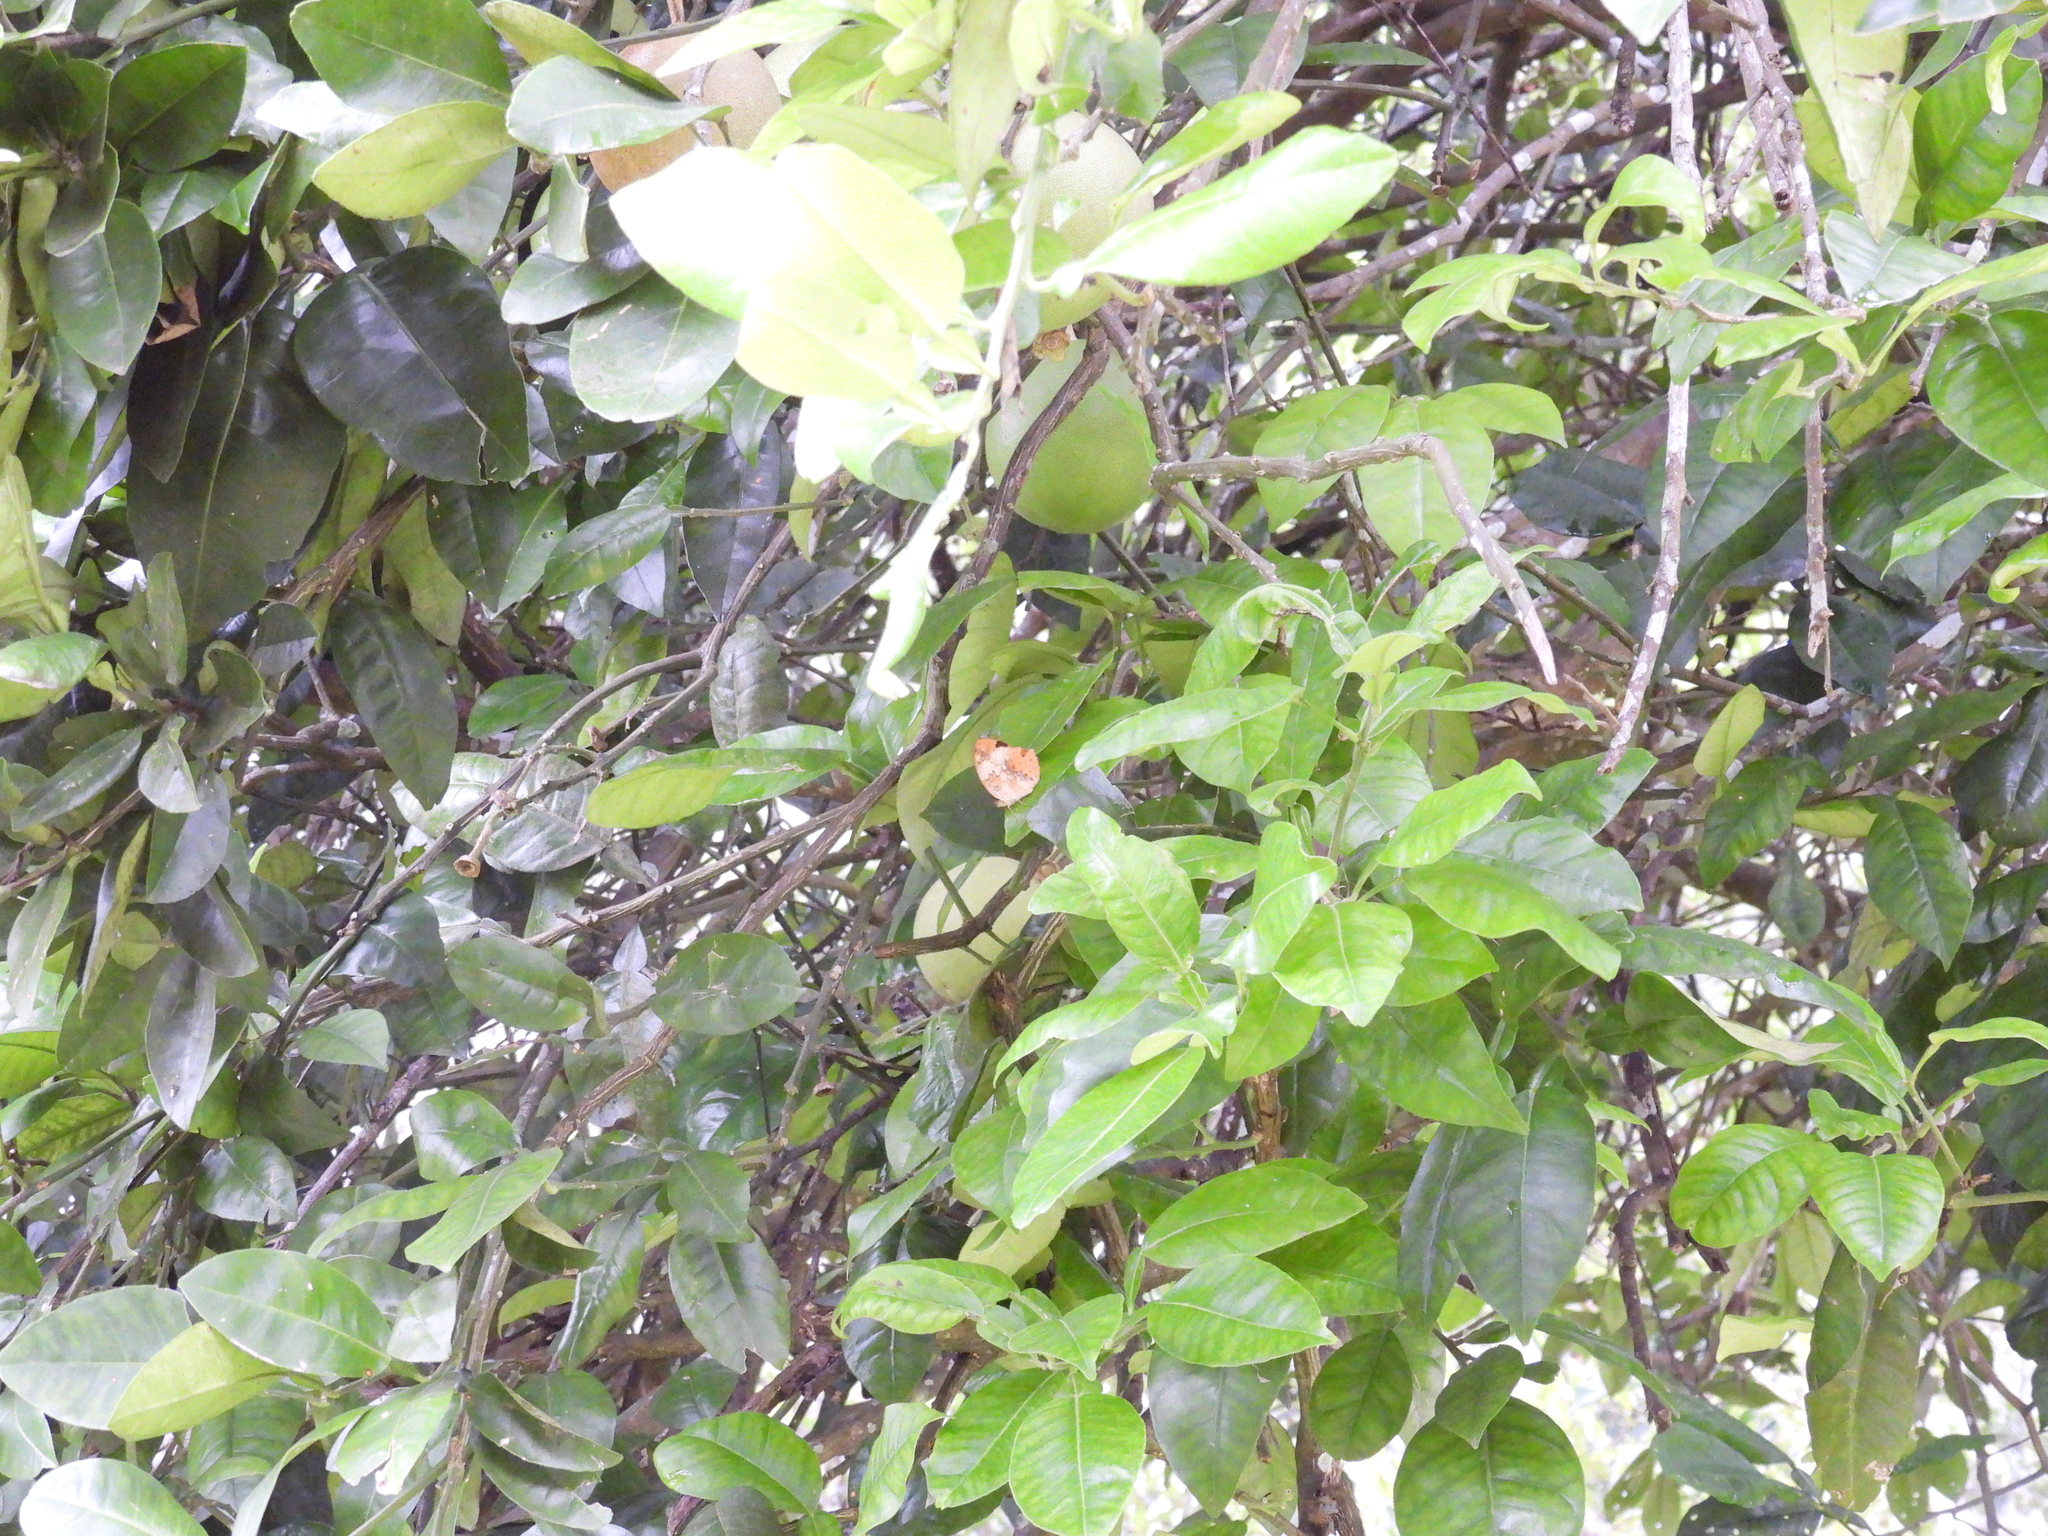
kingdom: Animalia
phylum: Arthropoda
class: Insecta
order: Lepidoptera
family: Nymphalidae
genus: Cupha
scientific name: Cupha erymanthis
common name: Rustic
